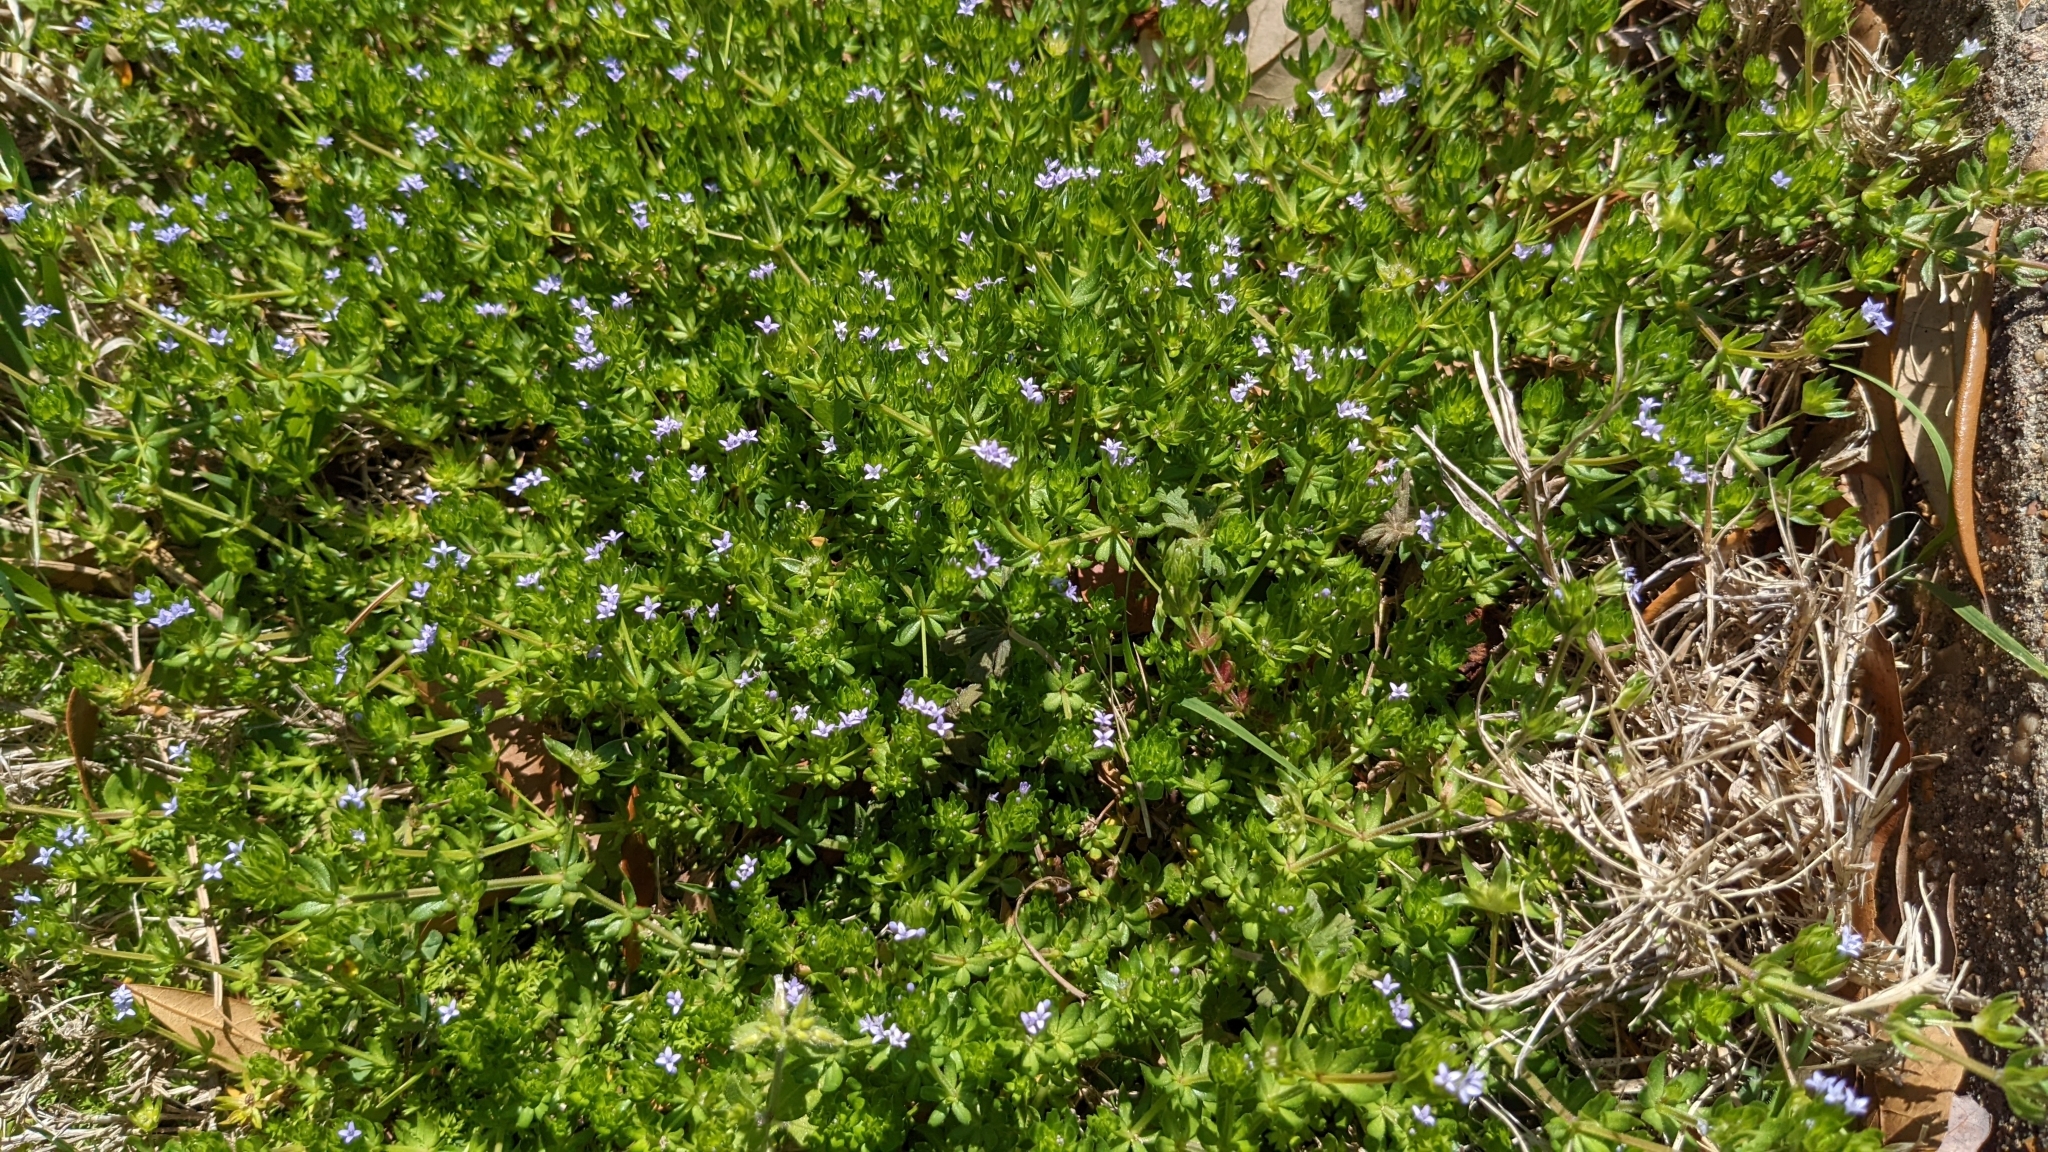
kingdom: Plantae
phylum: Tracheophyta
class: Magnoliopsida
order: Gentianales
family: Rubiaceae
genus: Sherardia
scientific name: Sherardia arvensis
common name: Field madder
